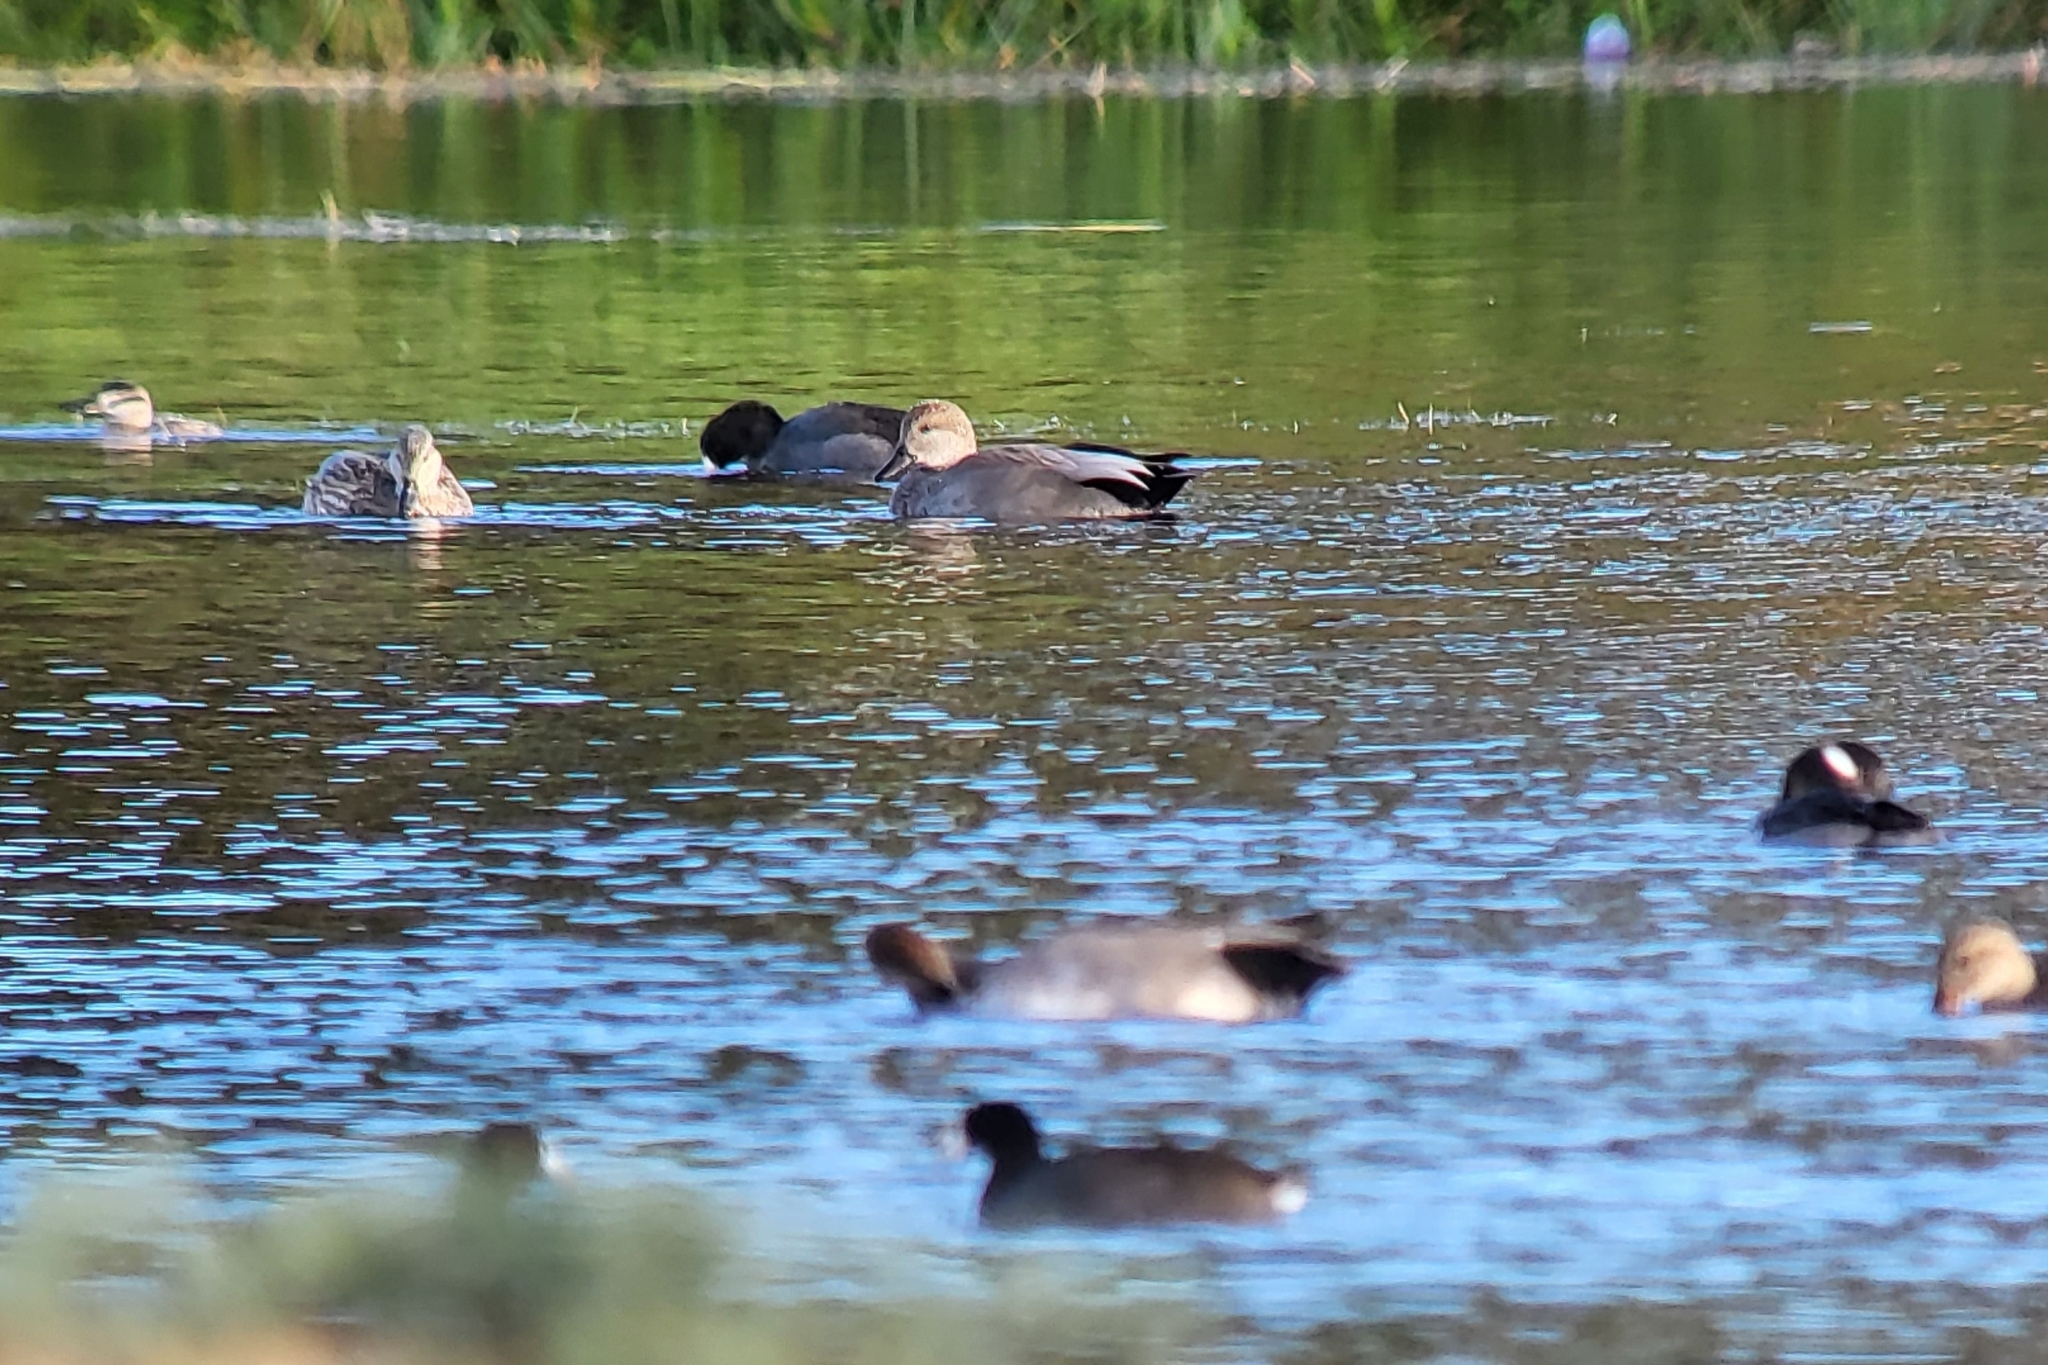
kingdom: Animalia
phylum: Chordata
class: Aves
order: Anseriformes
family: Anatidae
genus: Mareca
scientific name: Mareca strepera
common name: Gadwall
